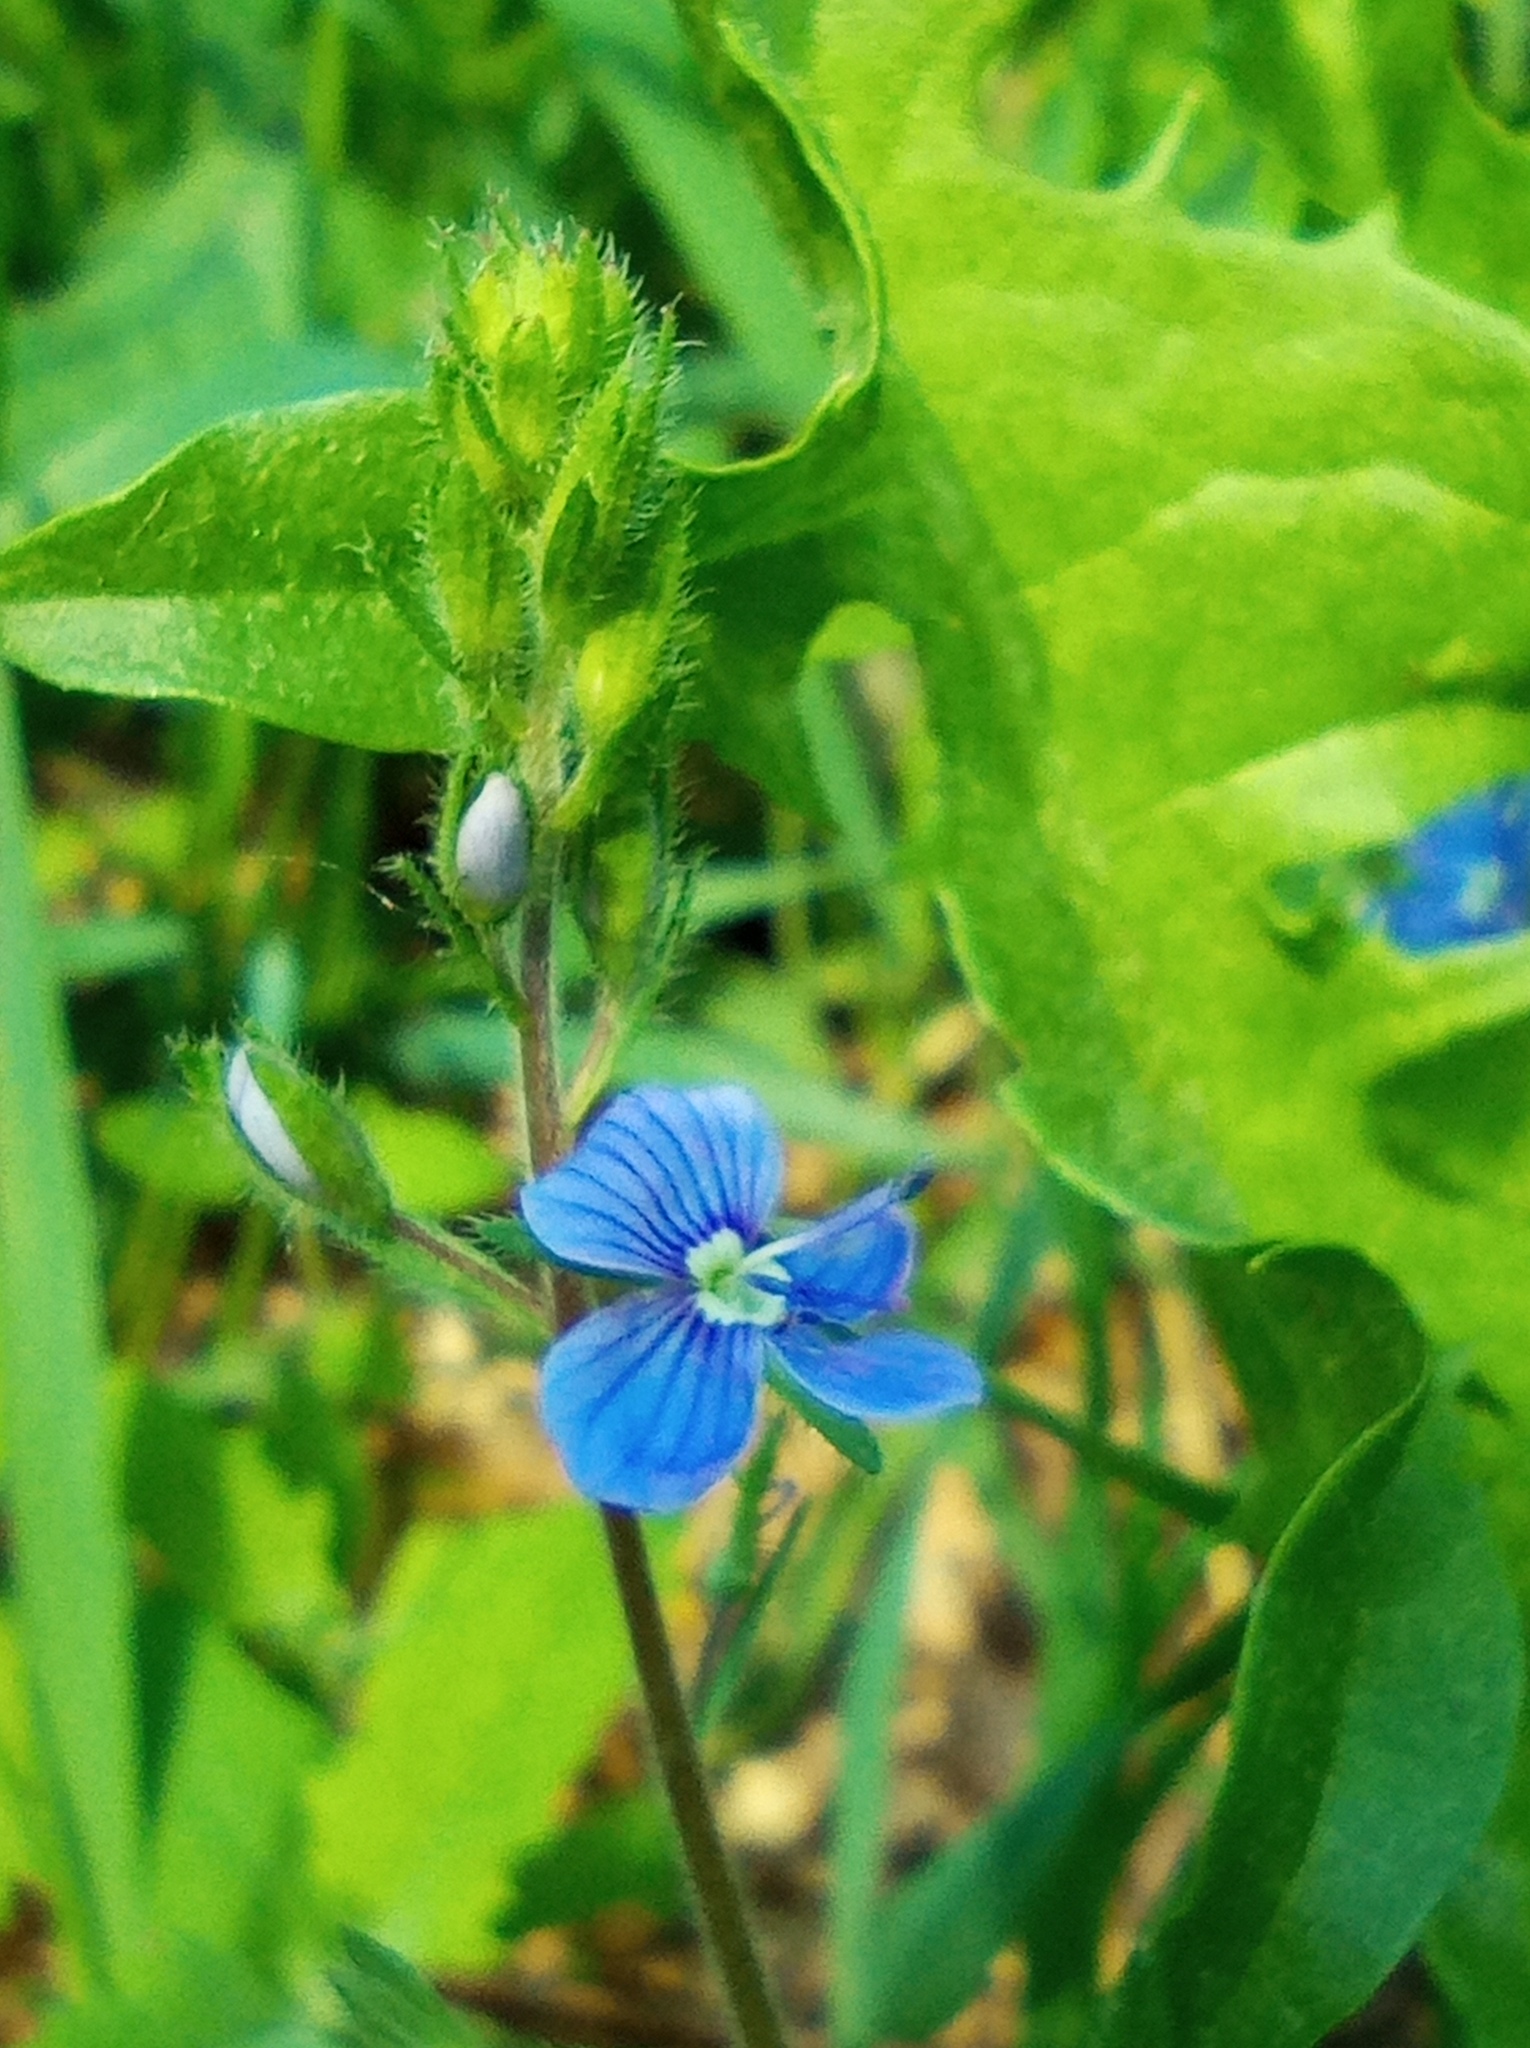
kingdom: Plantae
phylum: Tracheophyta
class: Magnoliopsida
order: Lamiales
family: Plantaginaceae
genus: Veronica
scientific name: Veronica chamaedrys
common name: Germander speedwell
